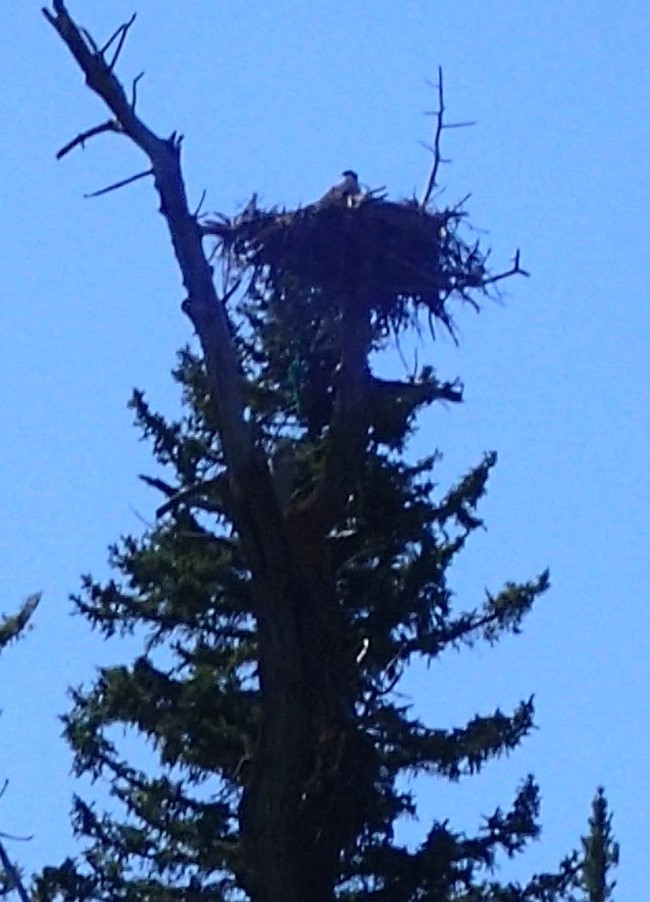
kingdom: Animalia
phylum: Chordata
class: Aves
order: Accipitriformes
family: Pandionidae
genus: Pandion
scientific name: Pandion haliaetus
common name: Osprey
